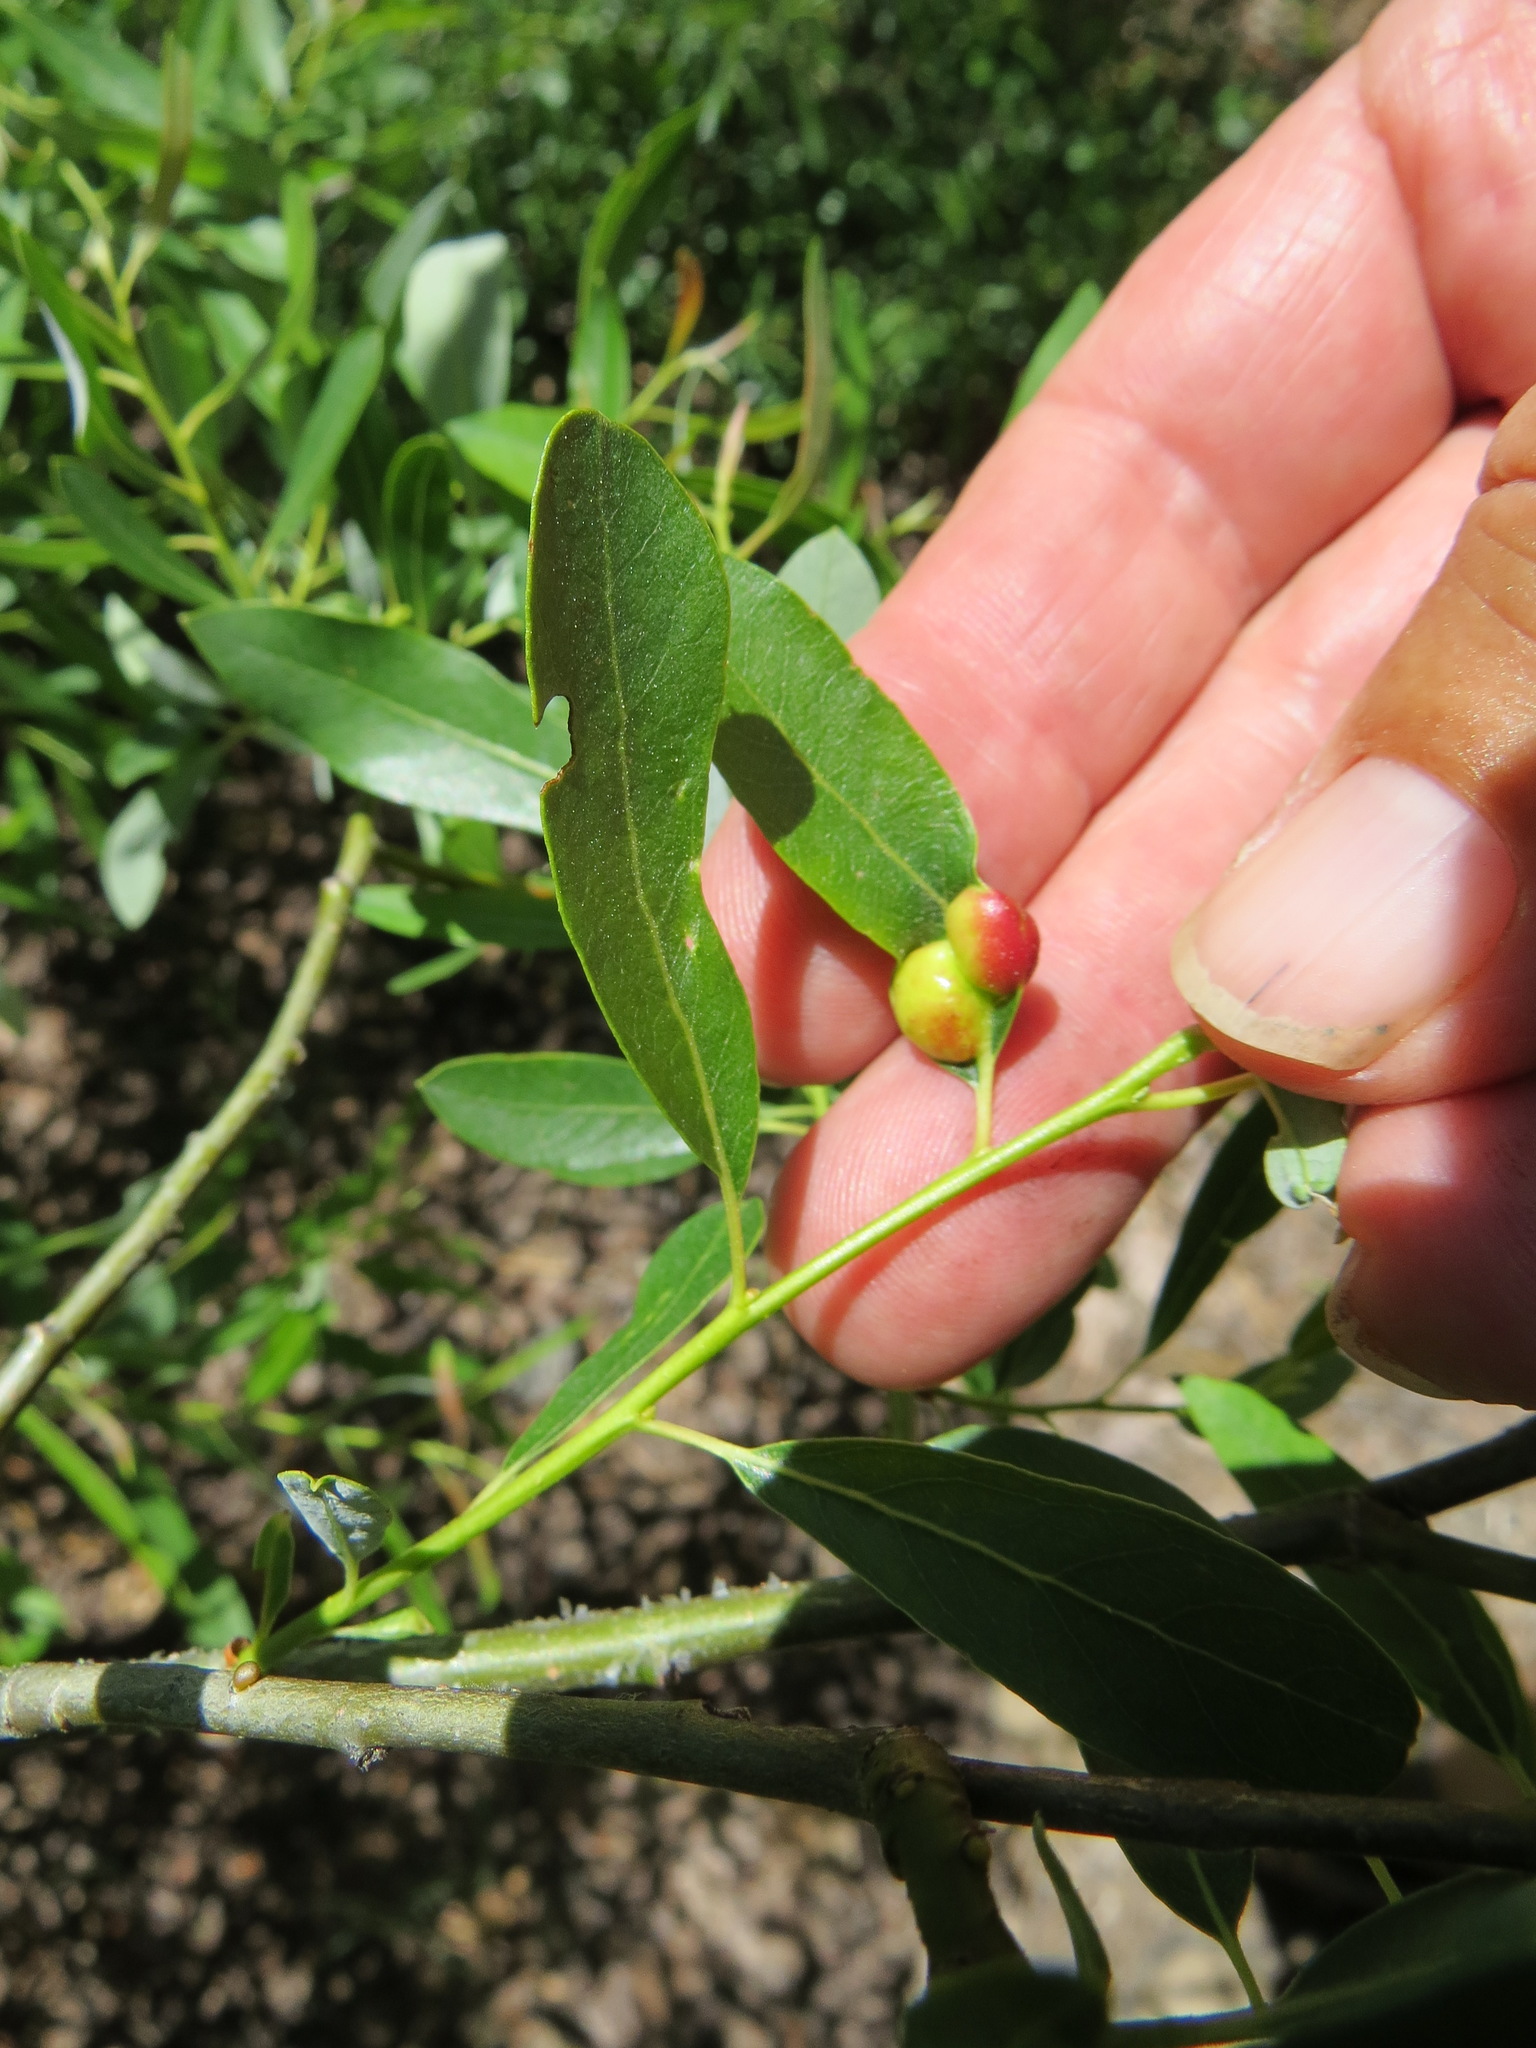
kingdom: Animalia
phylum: Arthropoda
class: Insecta
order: Hymenoptera
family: Tenthredinidae
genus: Euura
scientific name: Euura
